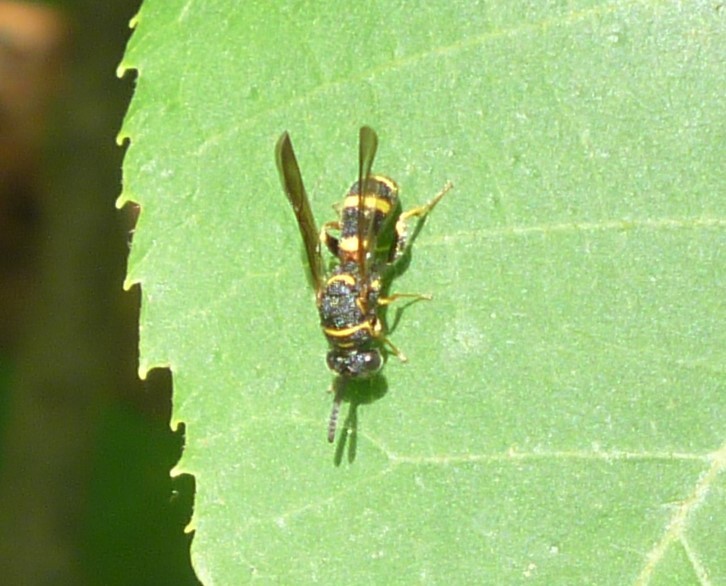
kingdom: Animalia
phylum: Arthropoda
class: Insecta
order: Hymenoptera
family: Leucospidae
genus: Leucospis
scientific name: Leucospis affinis
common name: Wasp
